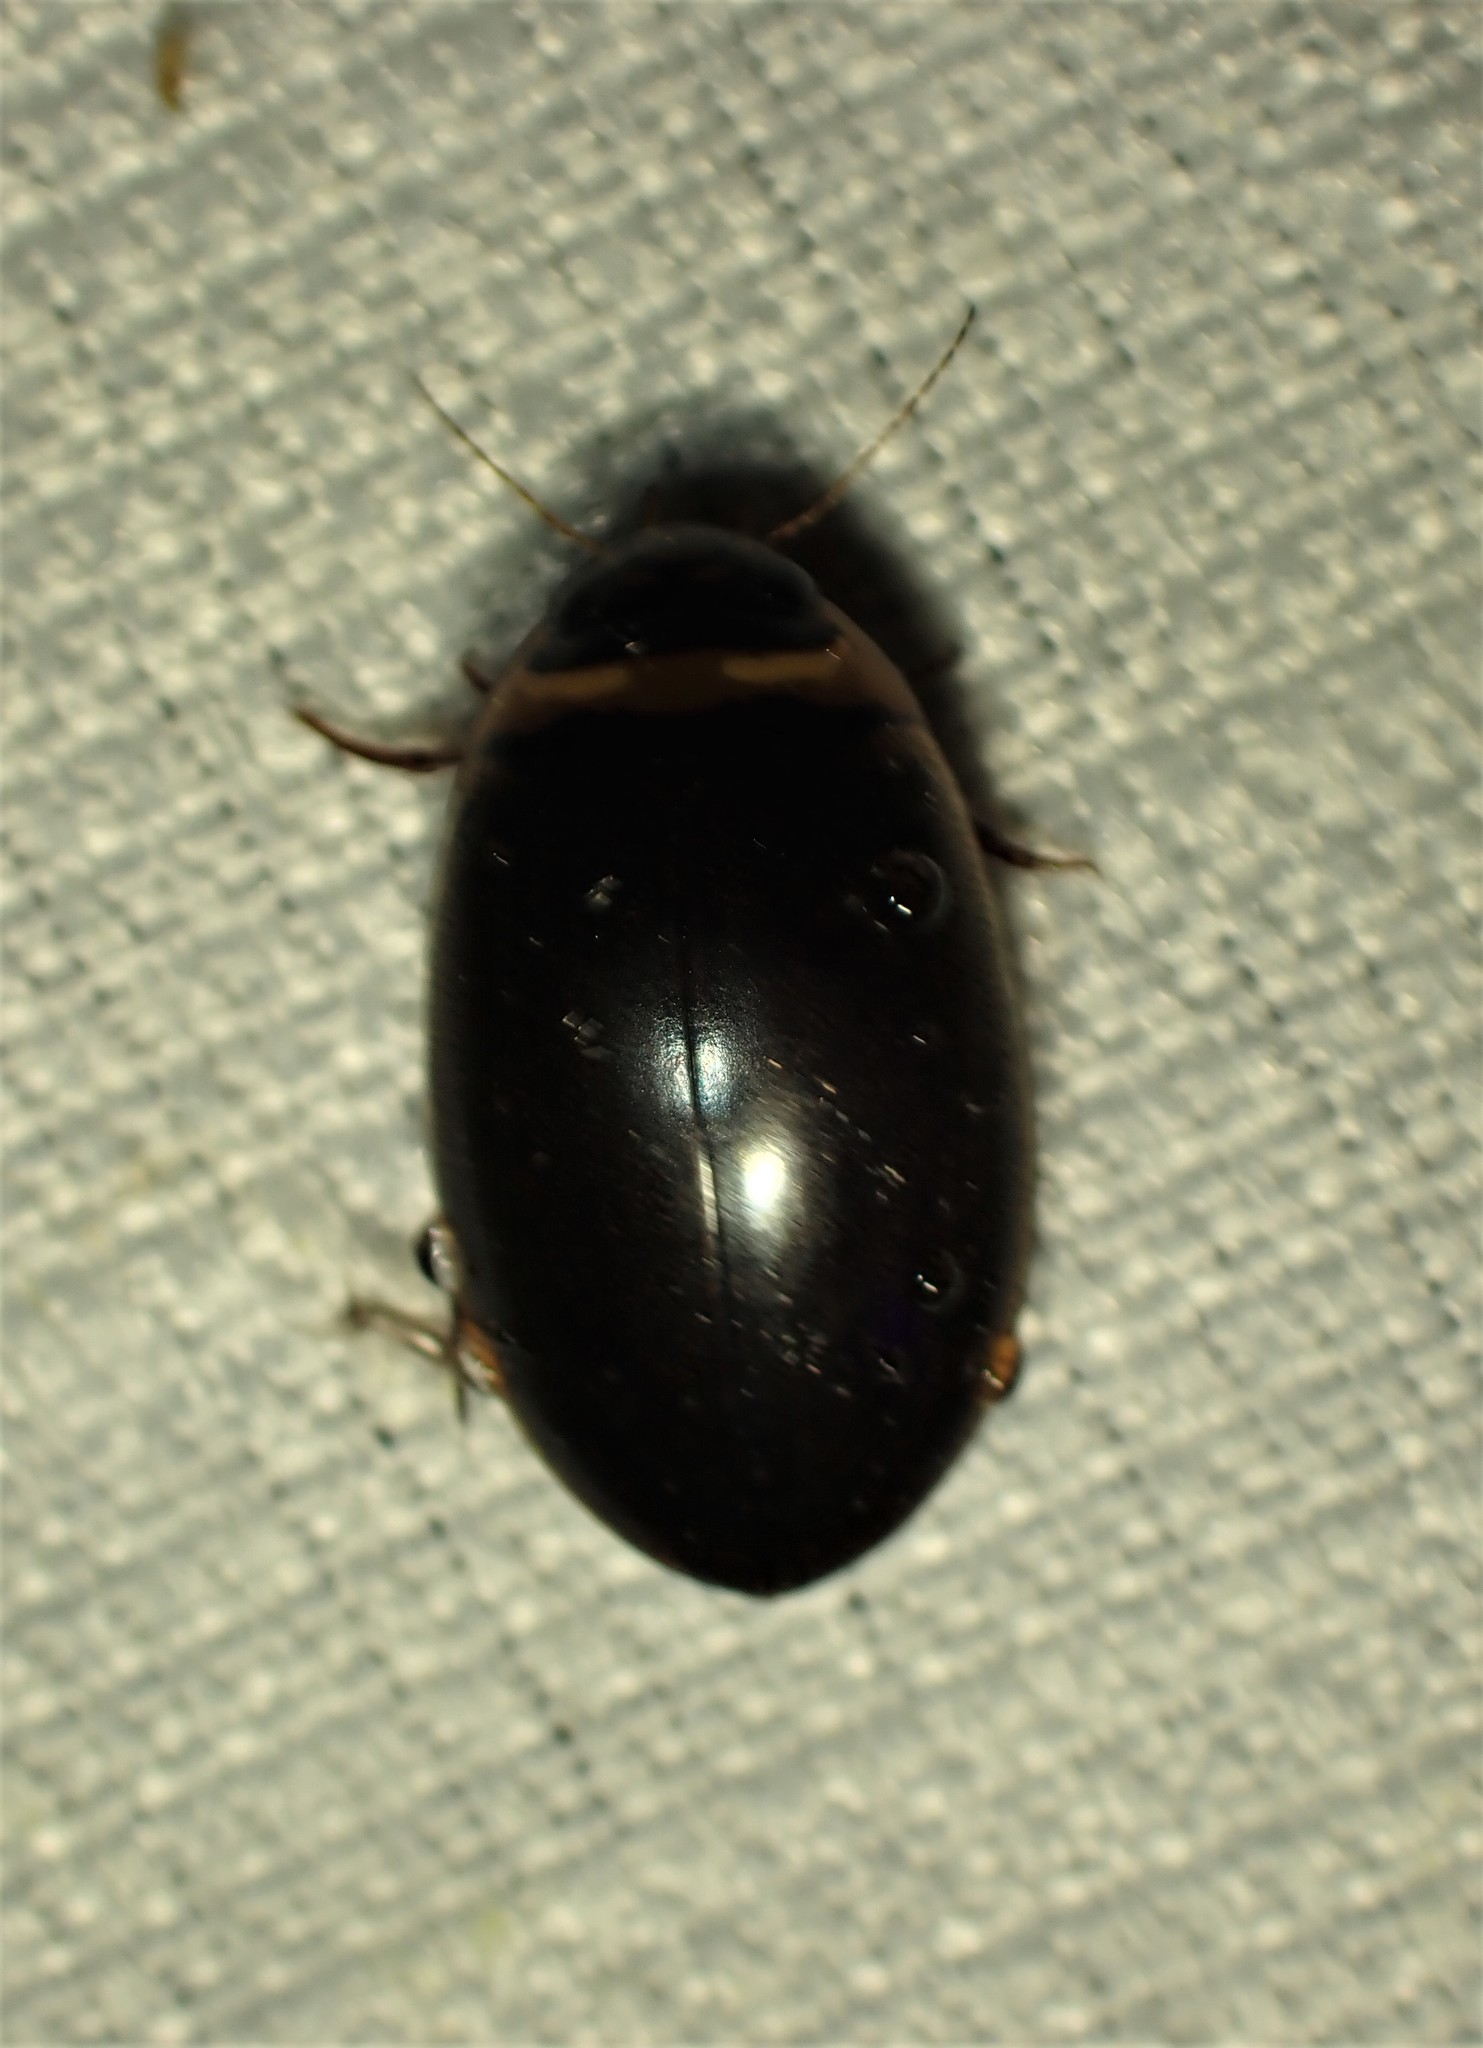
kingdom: Animalia
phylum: Arthropoda
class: Insecta
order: Coleoptera
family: Dytiscidae
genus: Graphoderus
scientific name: Graphoderus fascicollis
